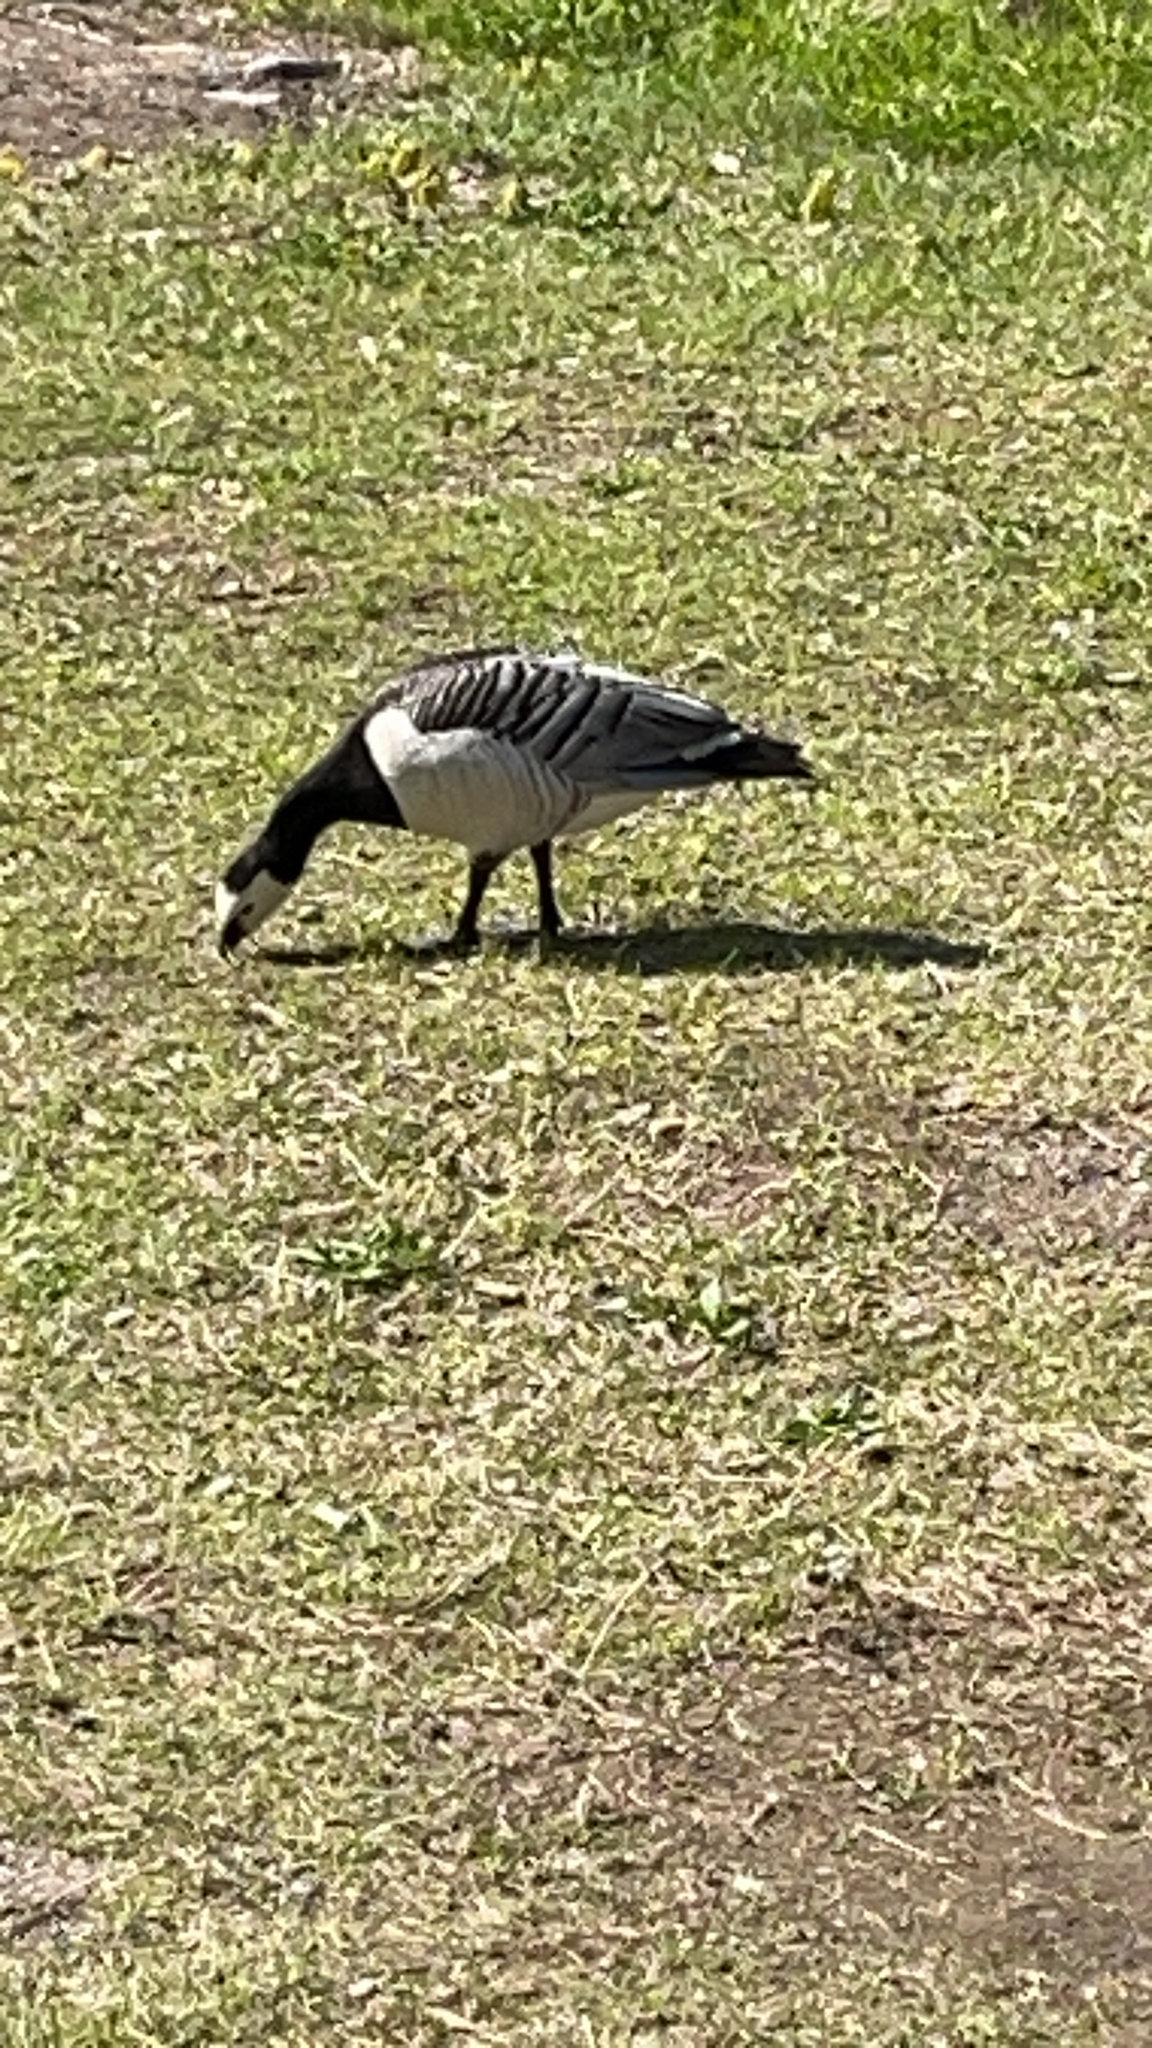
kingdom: Animalia
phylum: Chordata
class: Aves
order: Anseriformes
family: Anatidae
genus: Branta
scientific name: Branta leucopsis
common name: Barnacle goose
